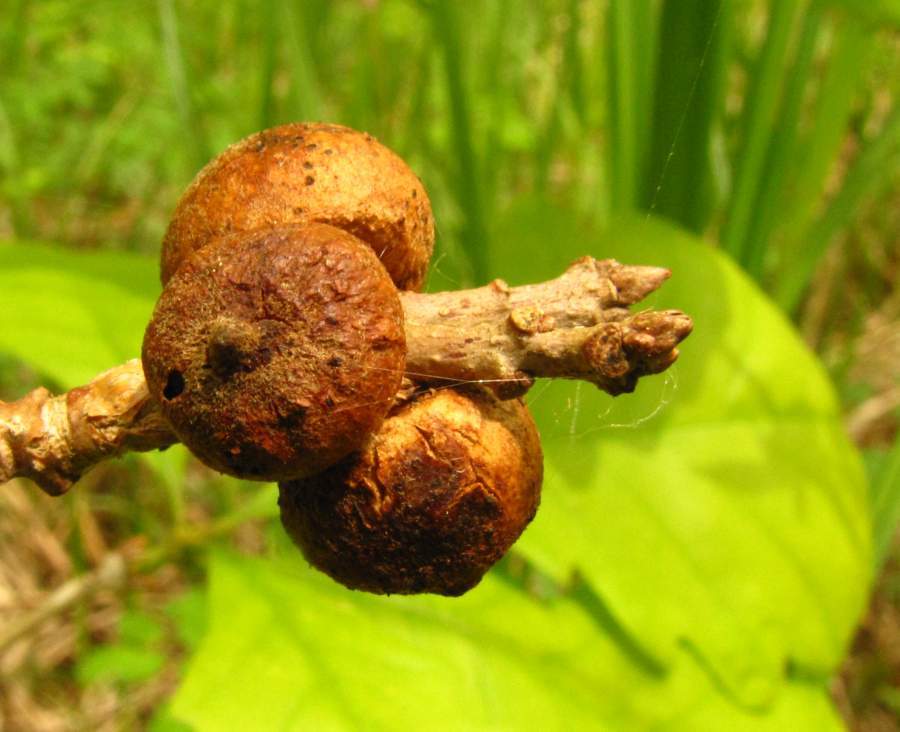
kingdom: Animalia
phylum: Arthropoda
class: Insecta
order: Hymenoptera
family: Cynipidae
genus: Disholcaspis
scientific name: Disholcaspis
